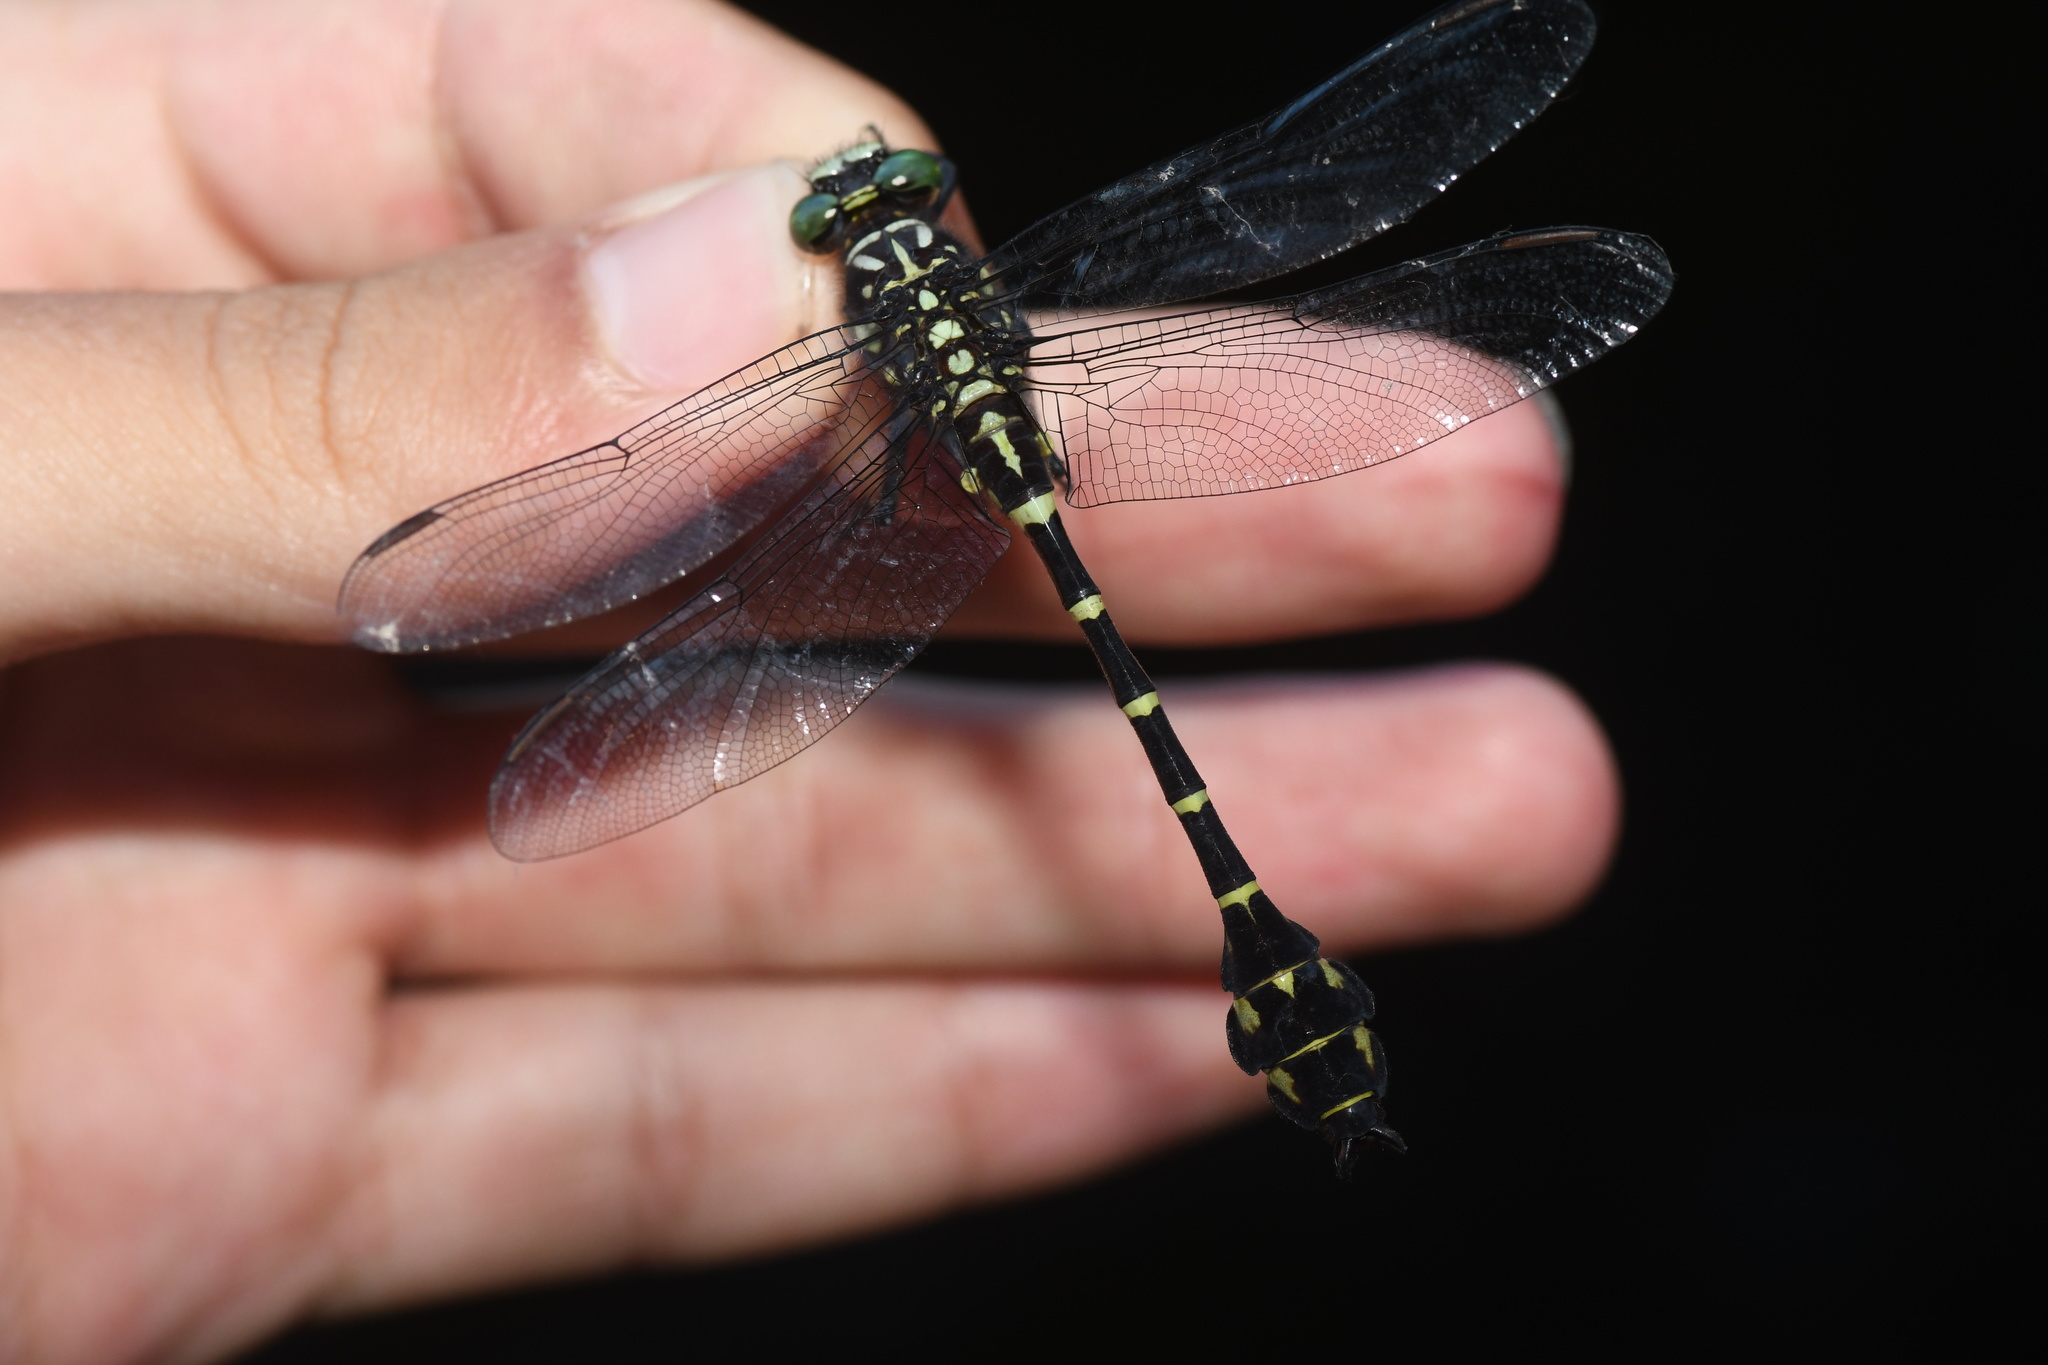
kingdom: Animalia
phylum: Arthropoda
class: Insecta
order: Odonata
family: Gomphidae
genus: Stylurus
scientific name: Stylurus scudderi
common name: Zebra clubtail
